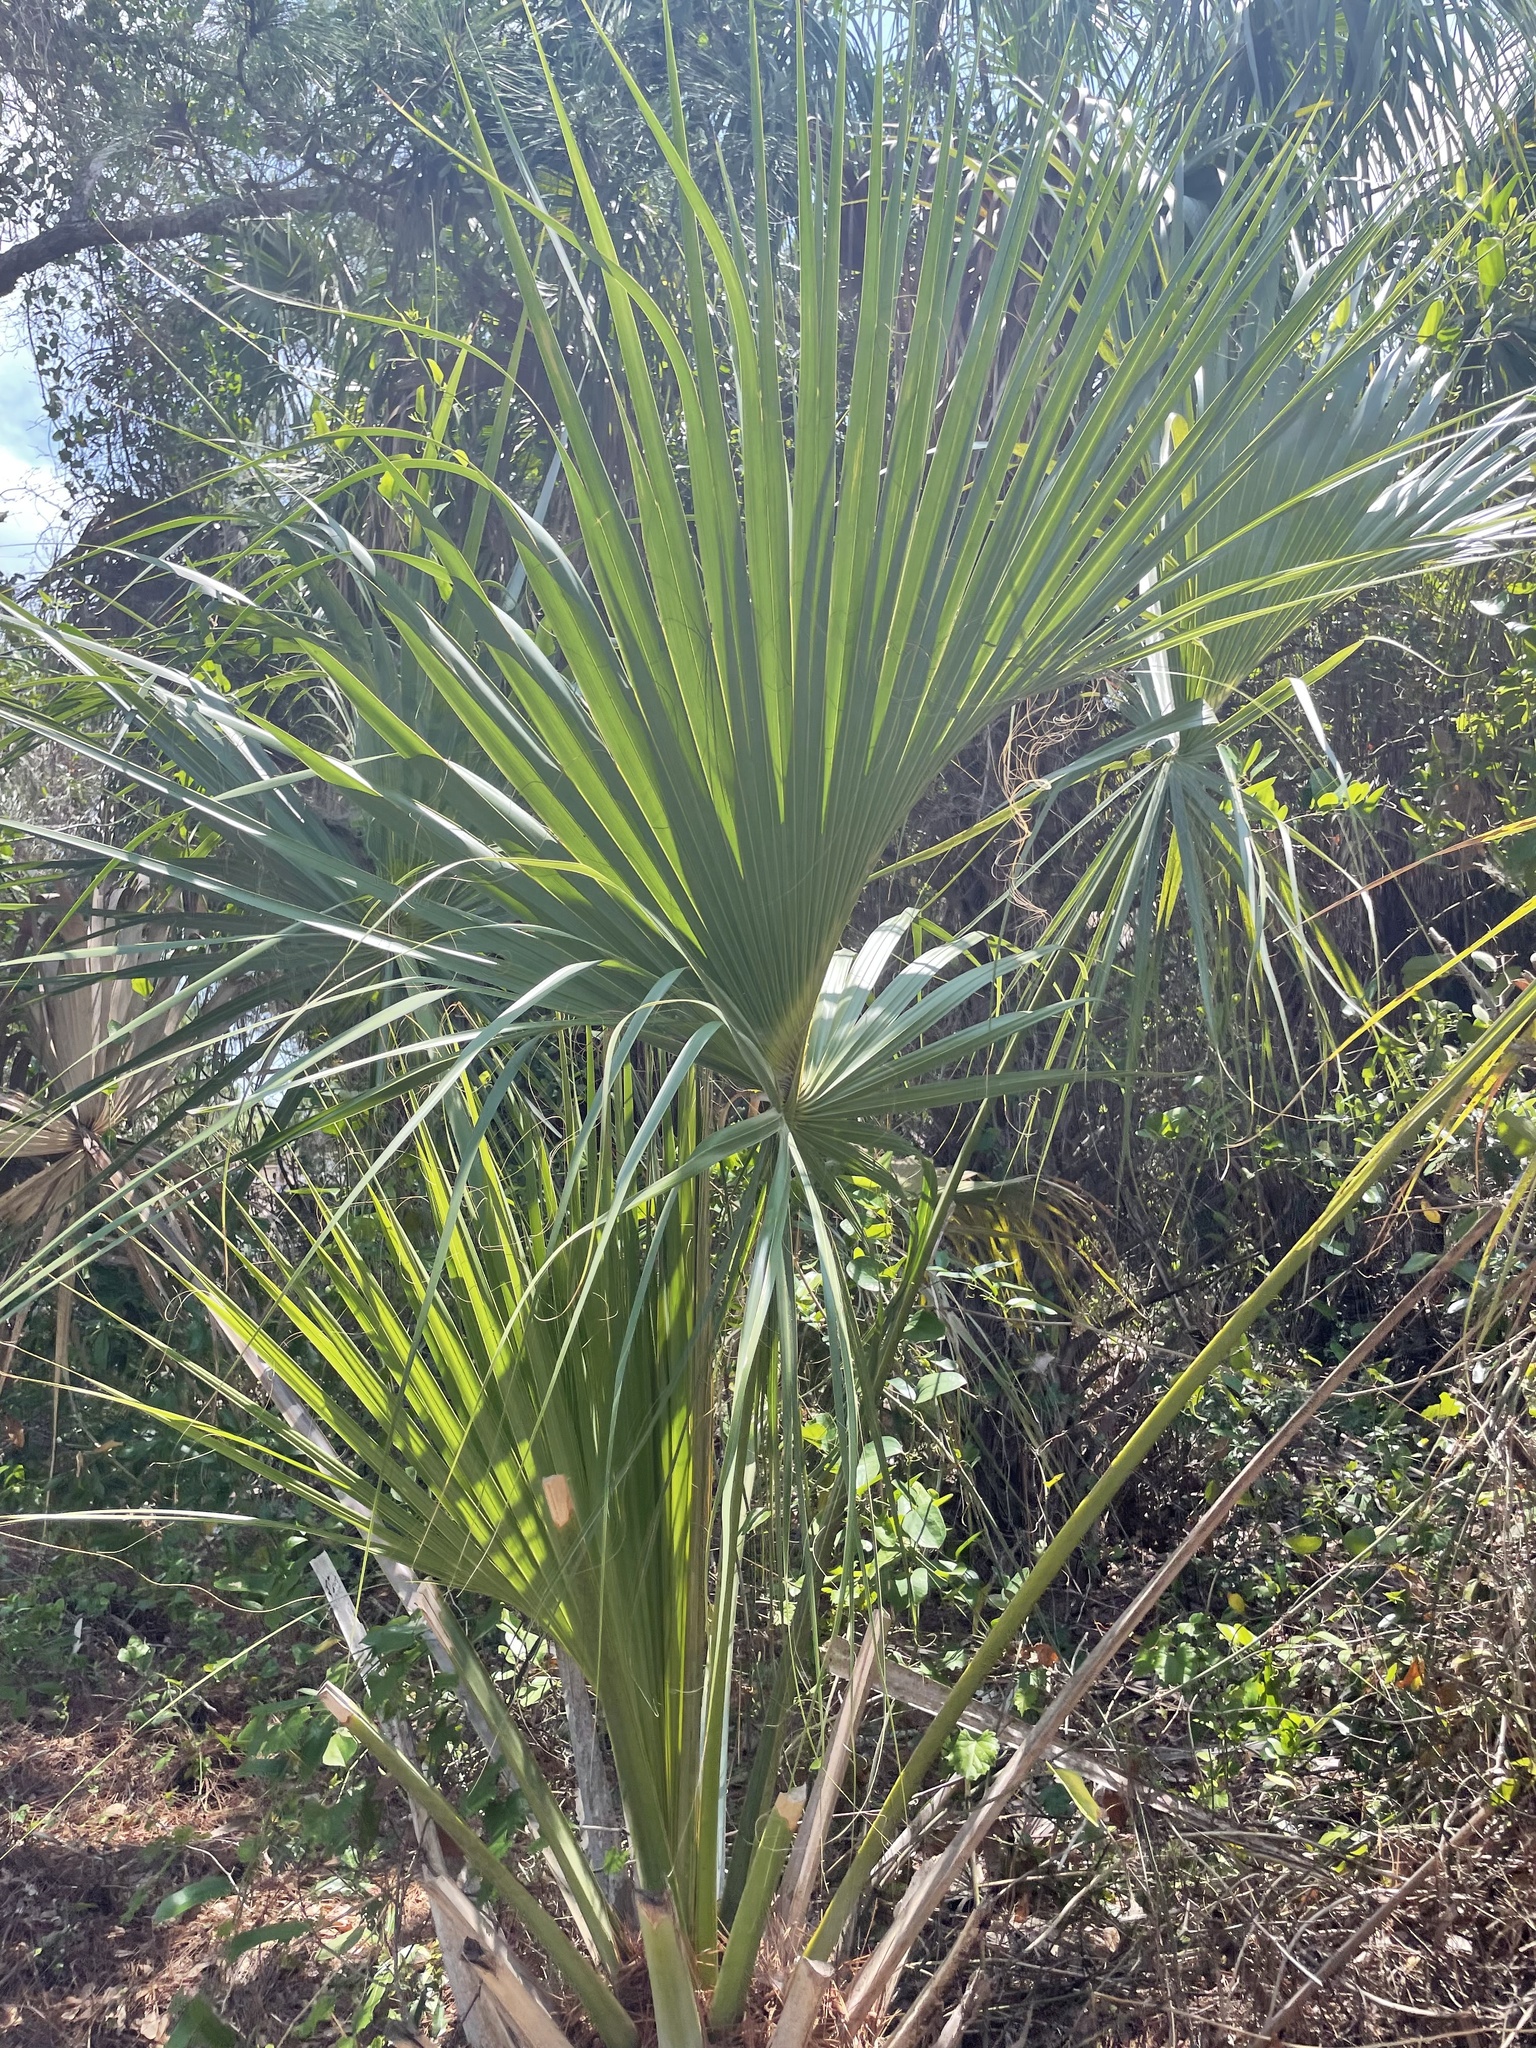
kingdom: Plantae
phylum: Tracheophyta
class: Liliopsida
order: Arecales
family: Arecaceae
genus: Sabal
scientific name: Sabal palmetto
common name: Blue palmetto
